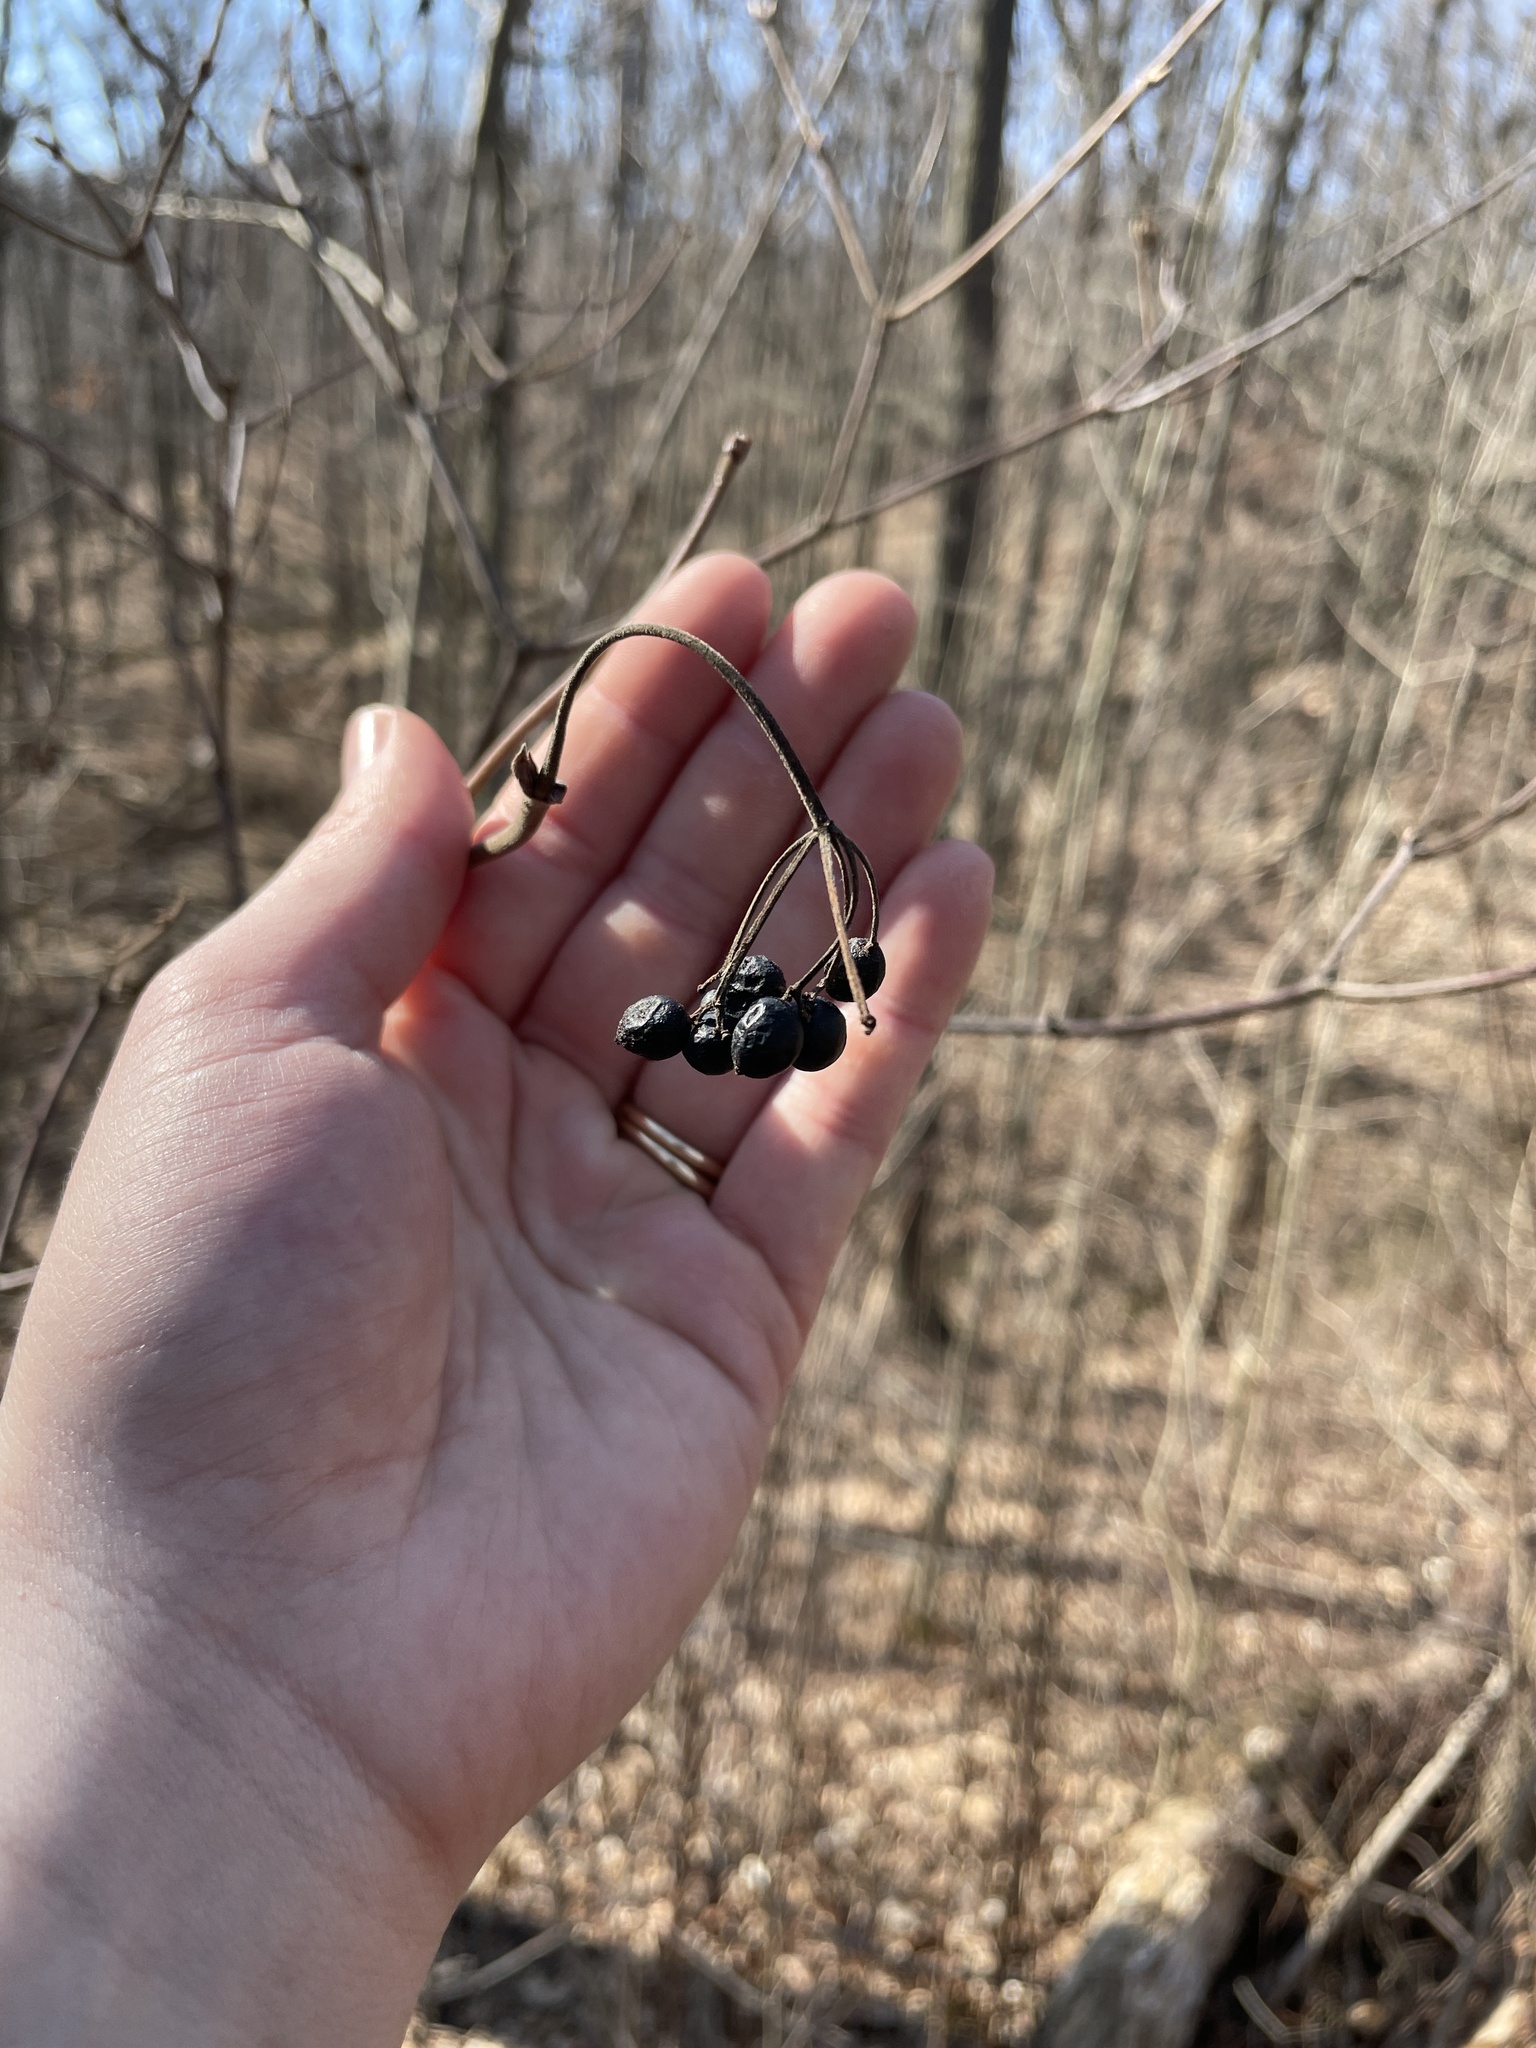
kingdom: Plantae
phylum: Tracheophyta
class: Magnoliopsida
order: Dipsacales
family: Viburnaceae
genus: Viburnum
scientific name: Viburnum lentago
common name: Black haw
